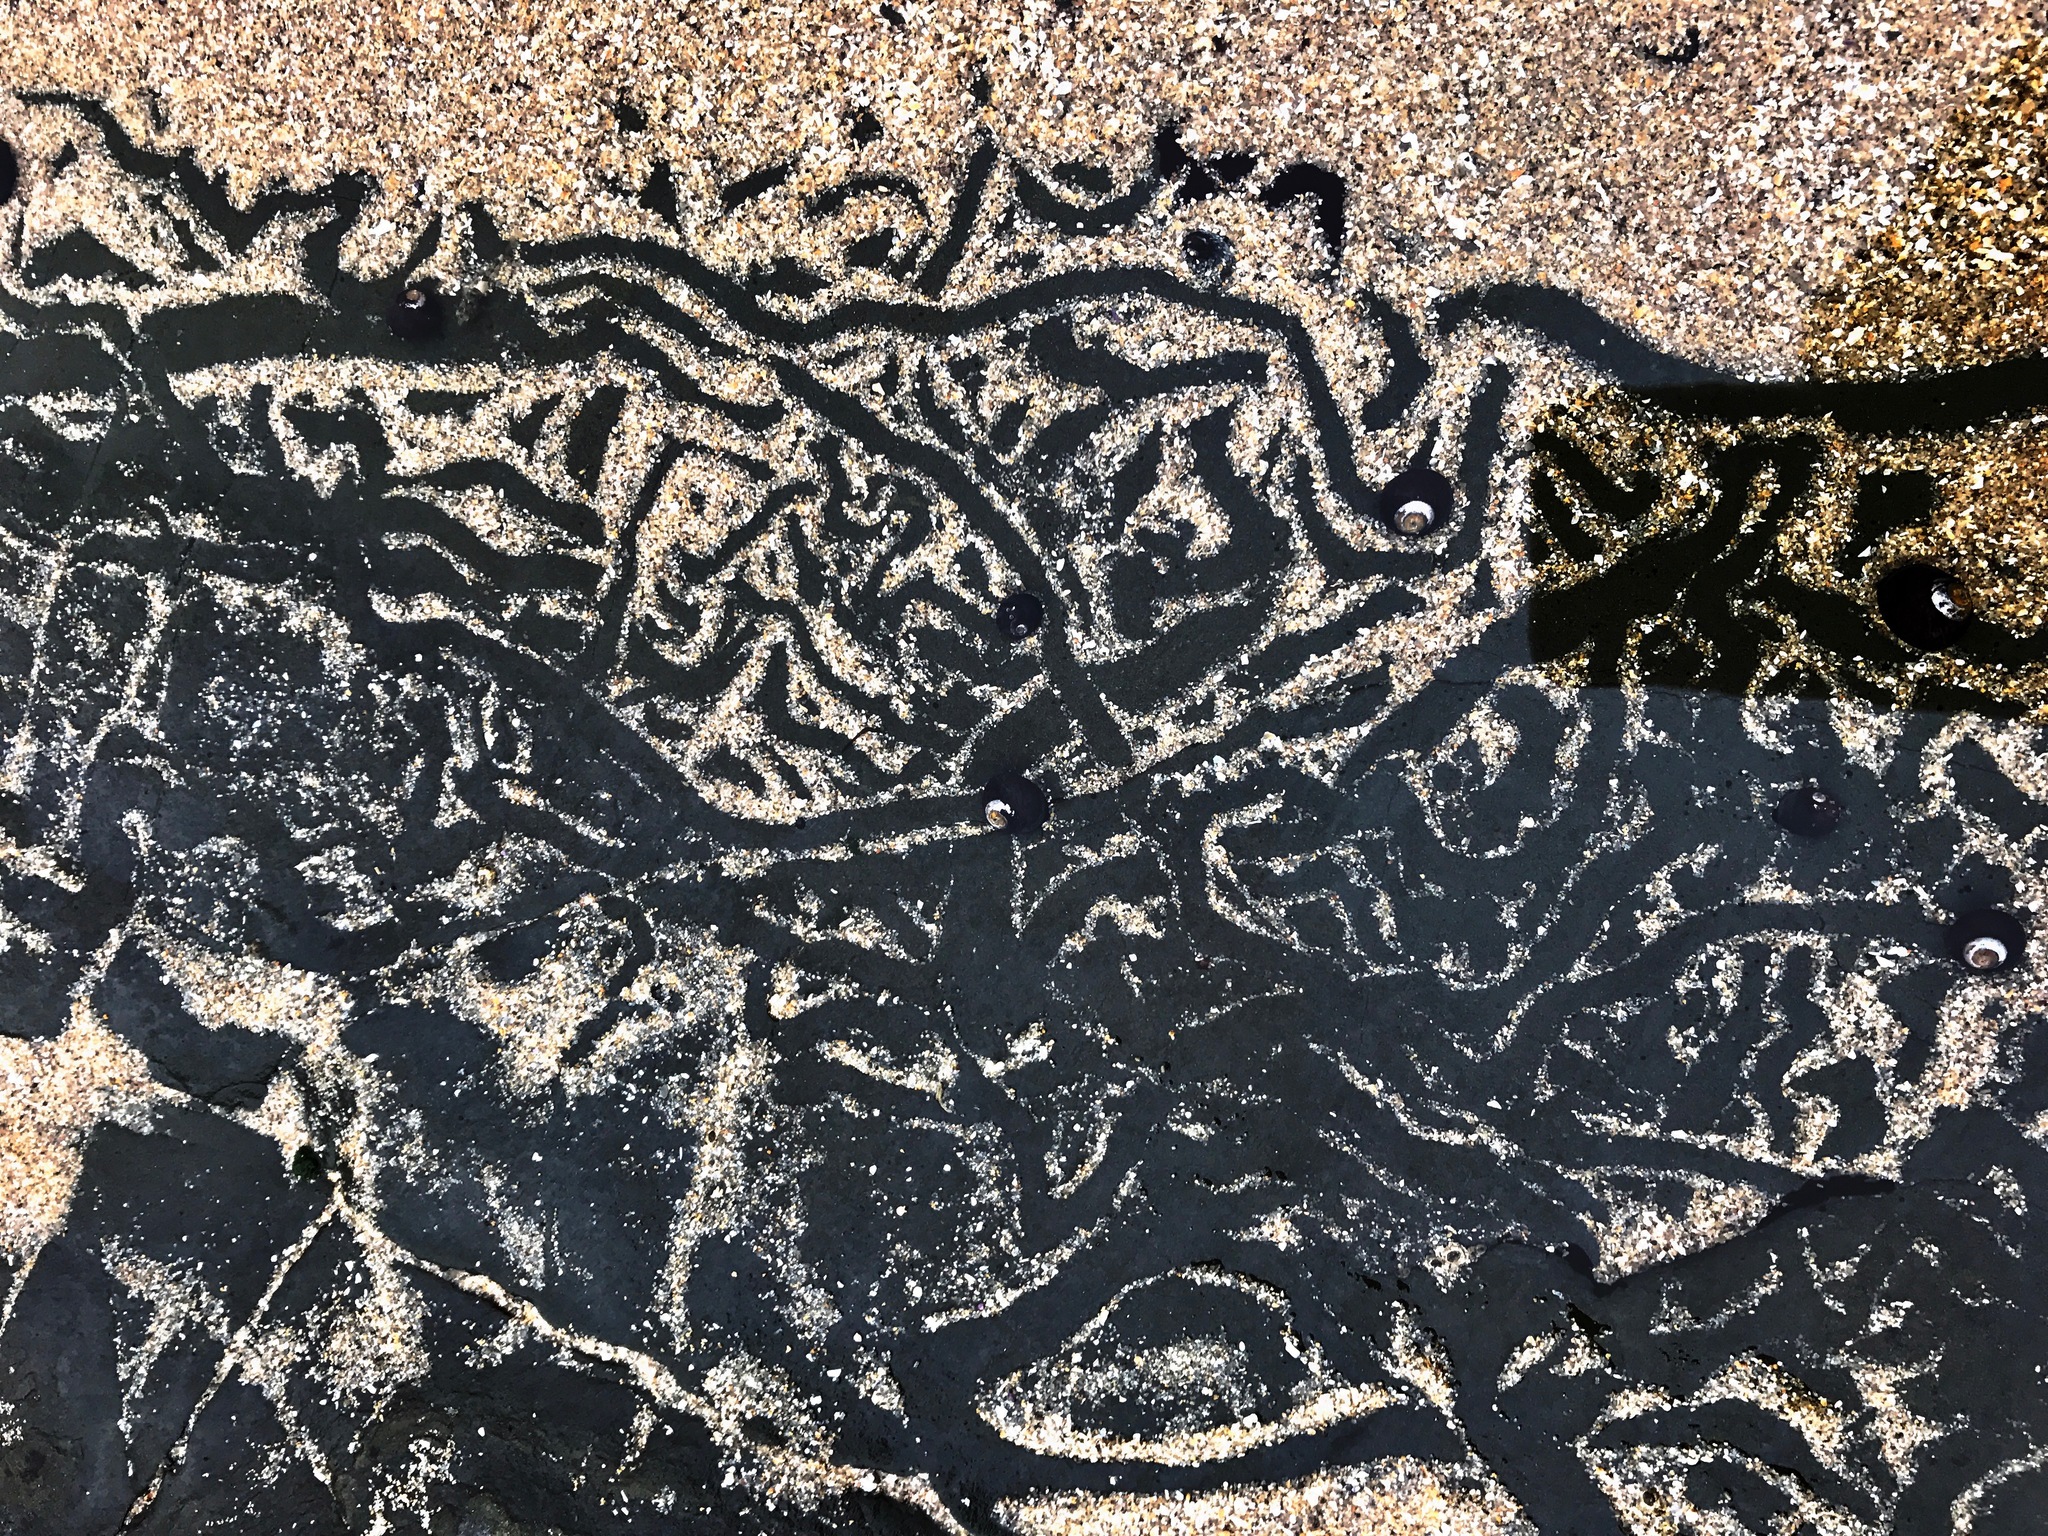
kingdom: Animalia
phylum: Mollusca
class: Gastropoda
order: Trochida
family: Tegulidae
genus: Tegula
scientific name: Tegula funebralis
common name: Black tegula
